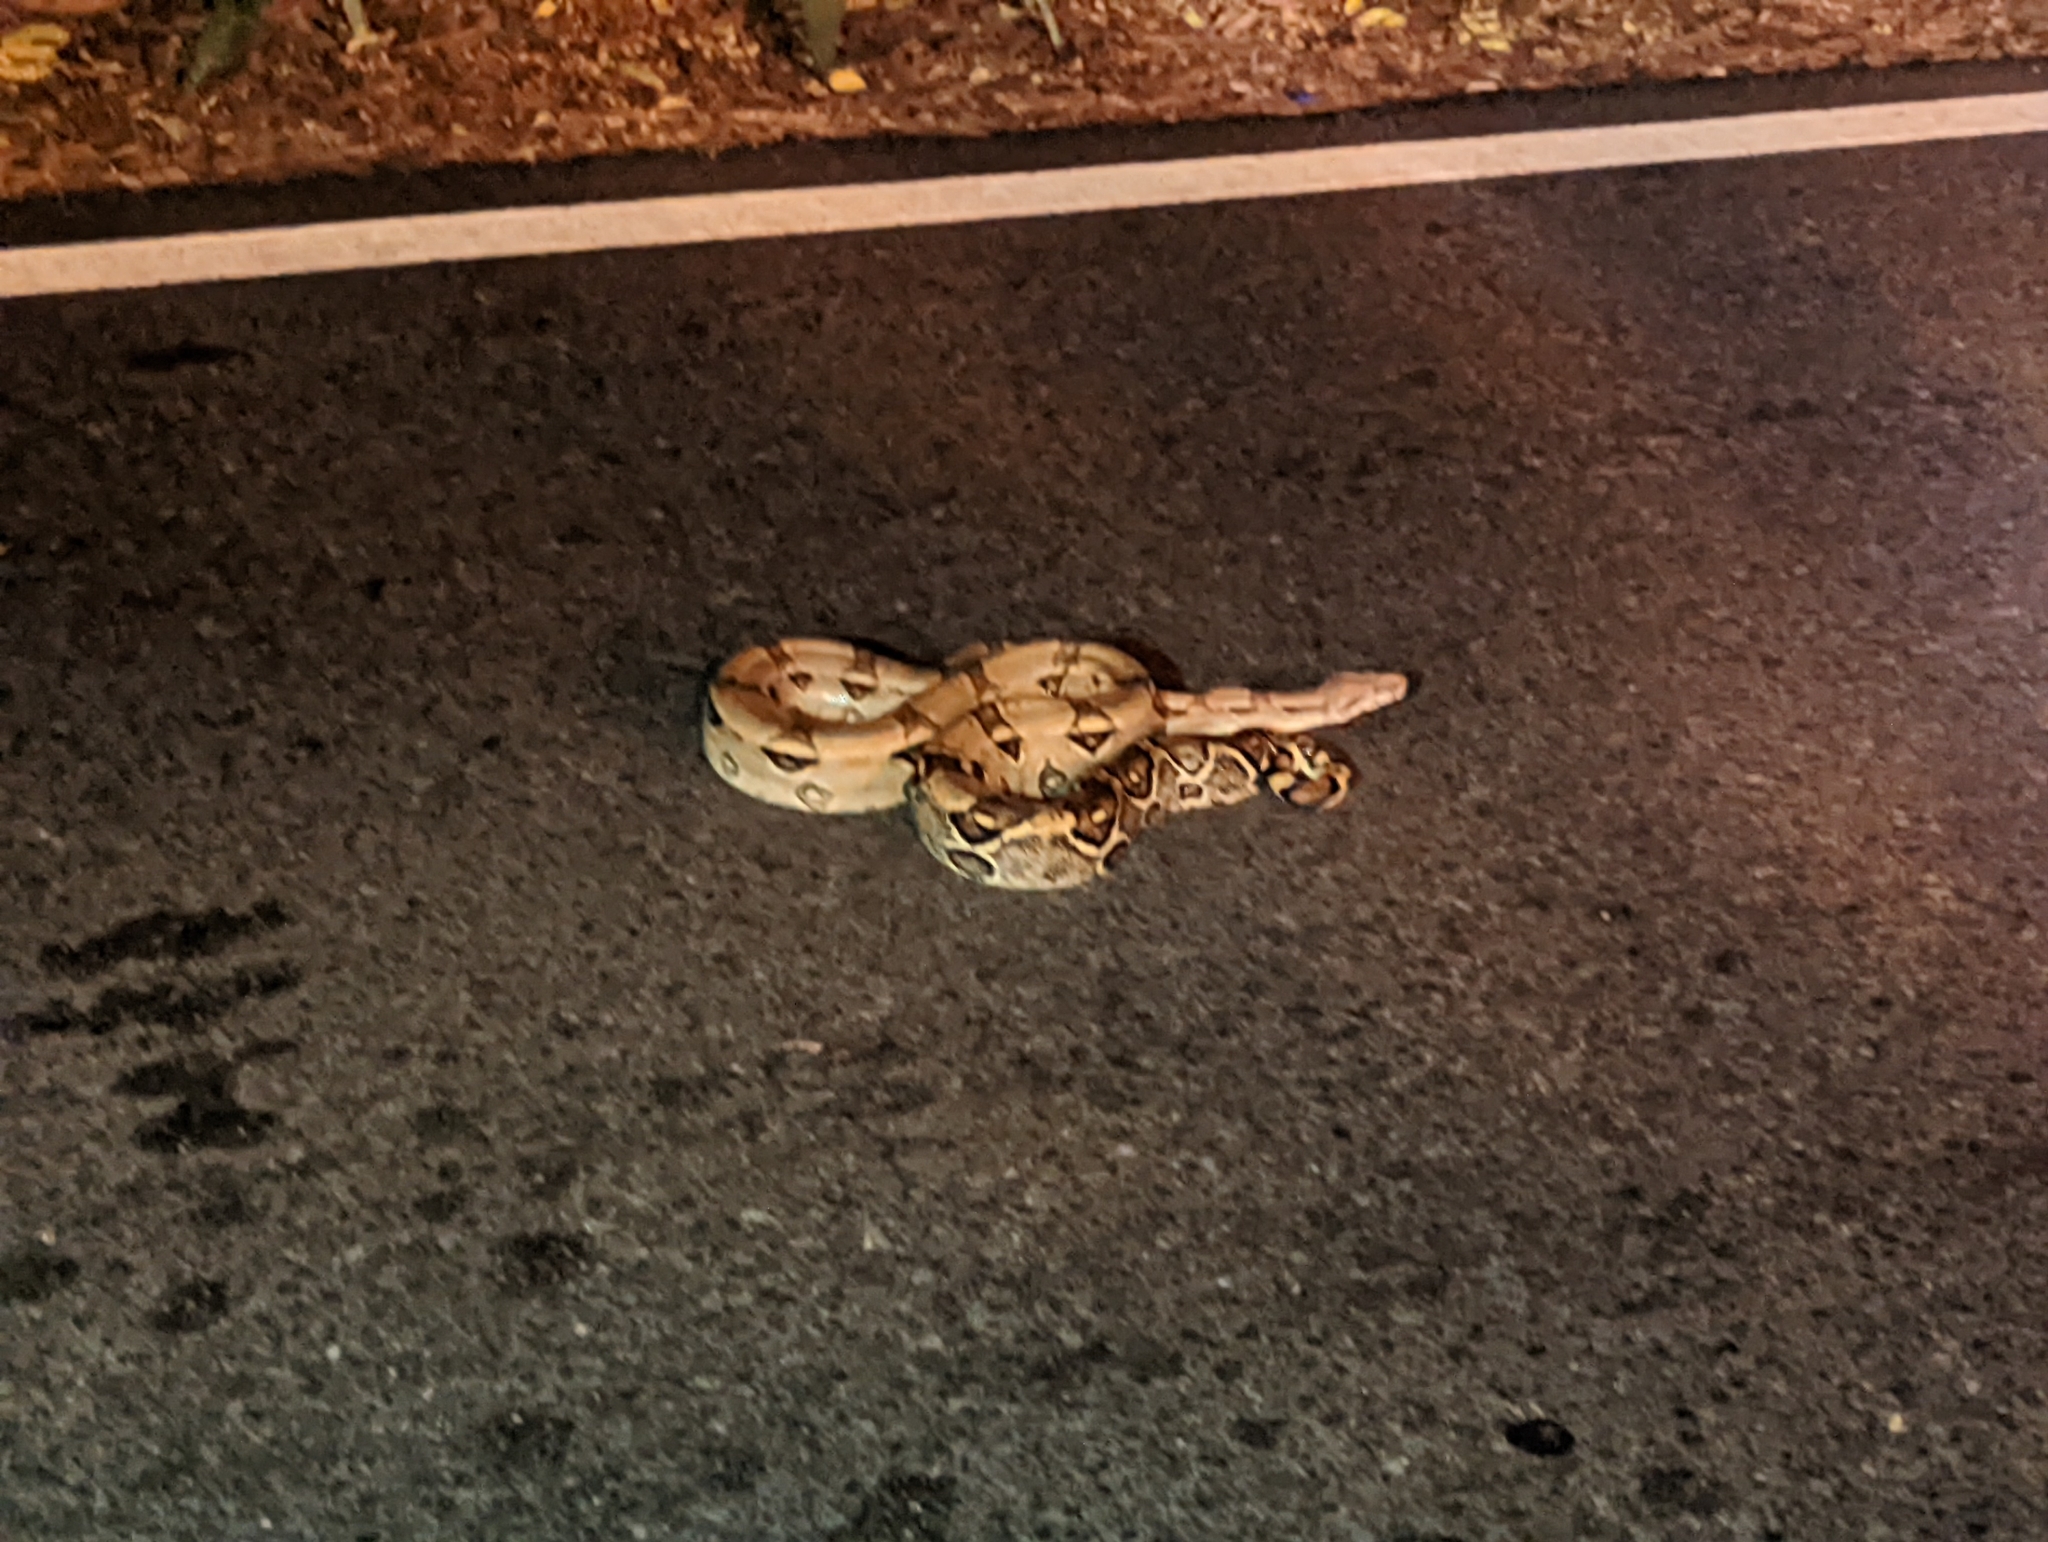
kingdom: Animalia
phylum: Chordata
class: Squamata
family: Boidae
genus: Boa
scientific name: Boa constrictor
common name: Boa constrictor
